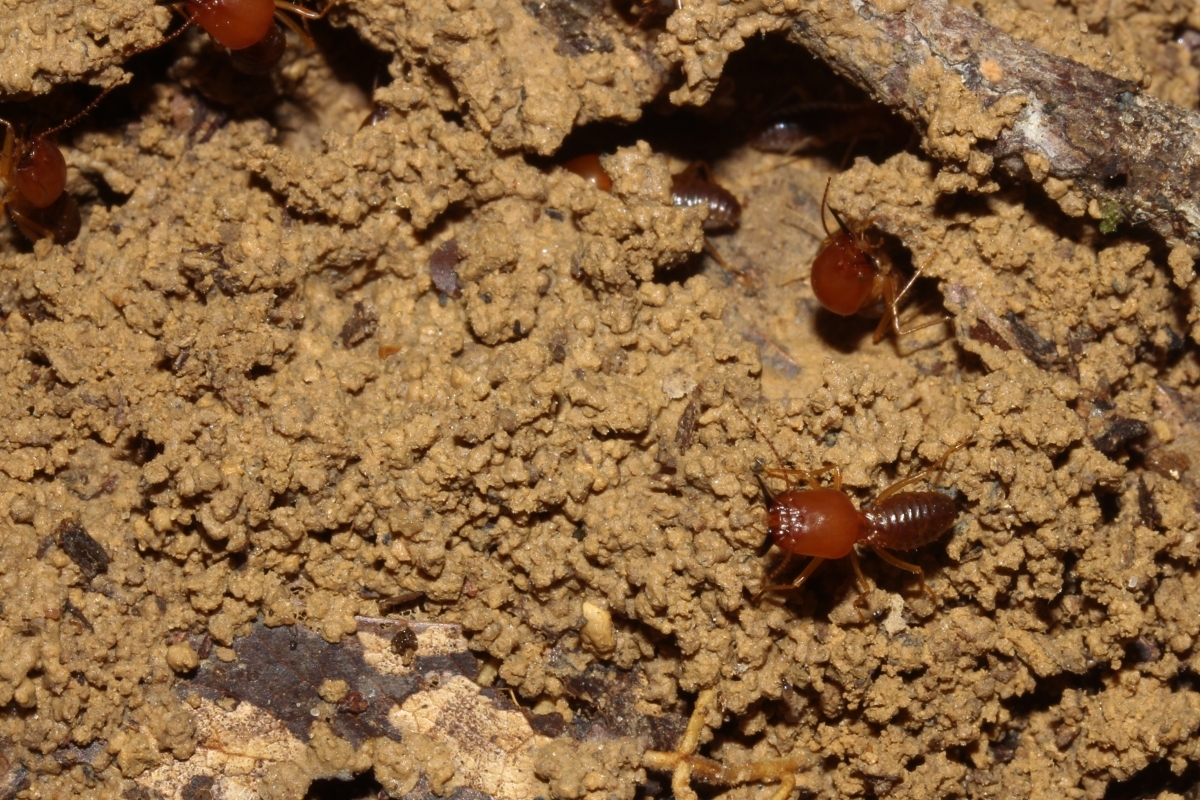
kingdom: Animalia
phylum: Arthropoda
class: Insecta
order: Blattodea
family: Termitidae
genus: Syntermes
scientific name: Syntermes molestus
